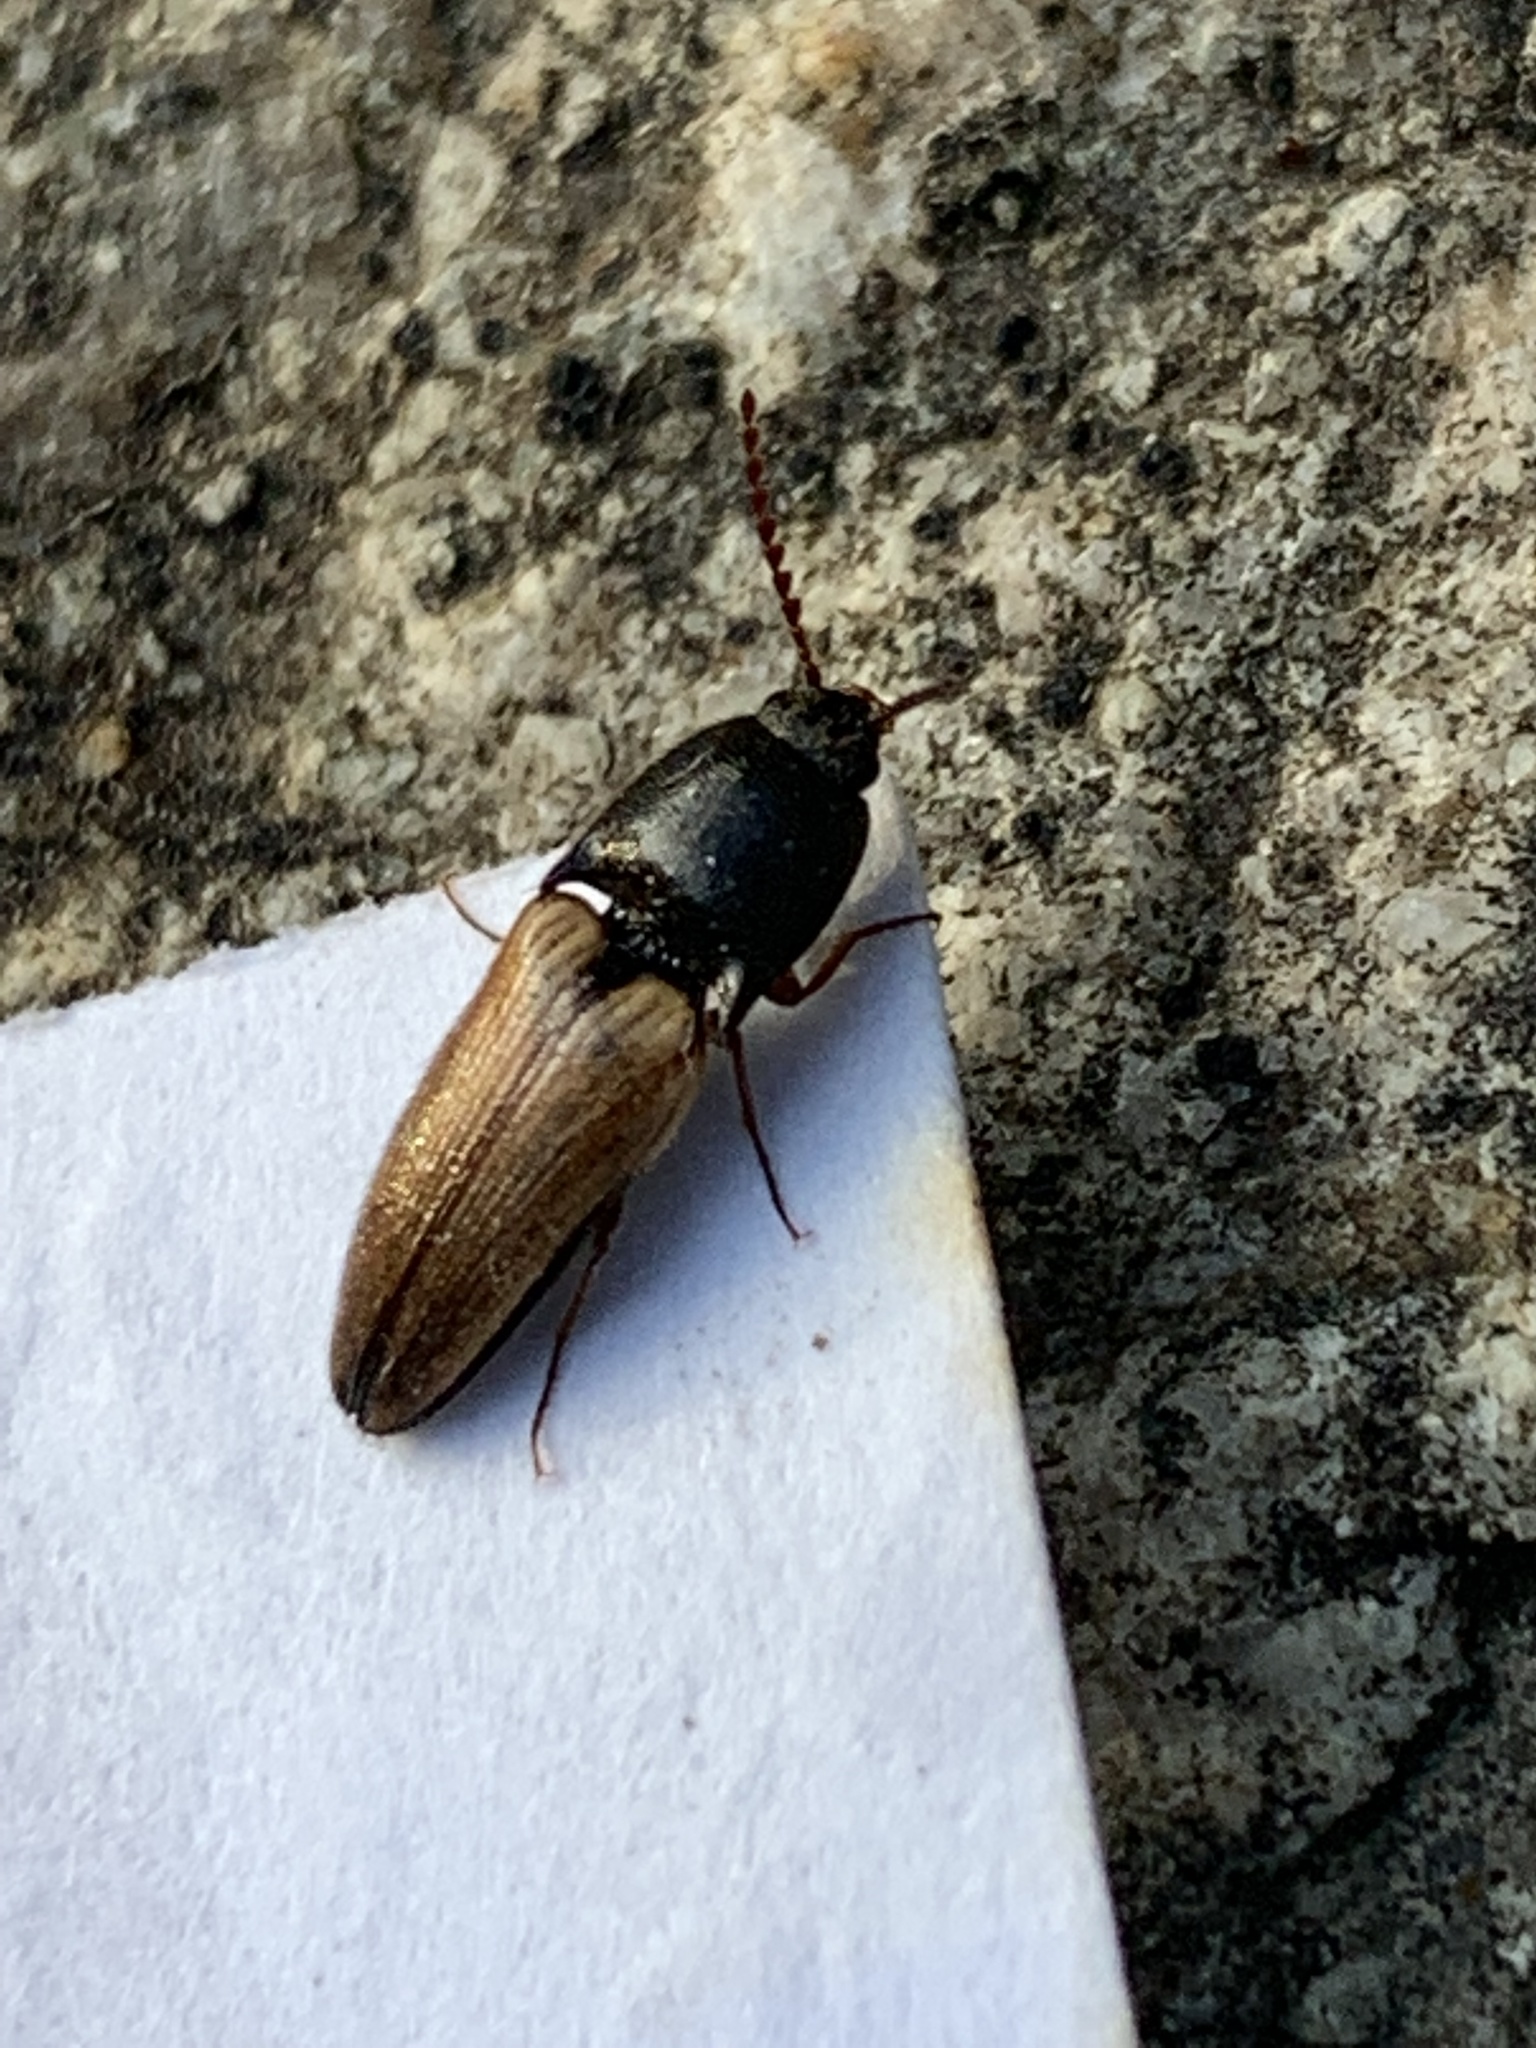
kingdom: Animalia
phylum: Arthropoda
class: Insecta
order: Coleoptera
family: Elateridae
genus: Ampedus
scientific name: Ampedus nigricollis
